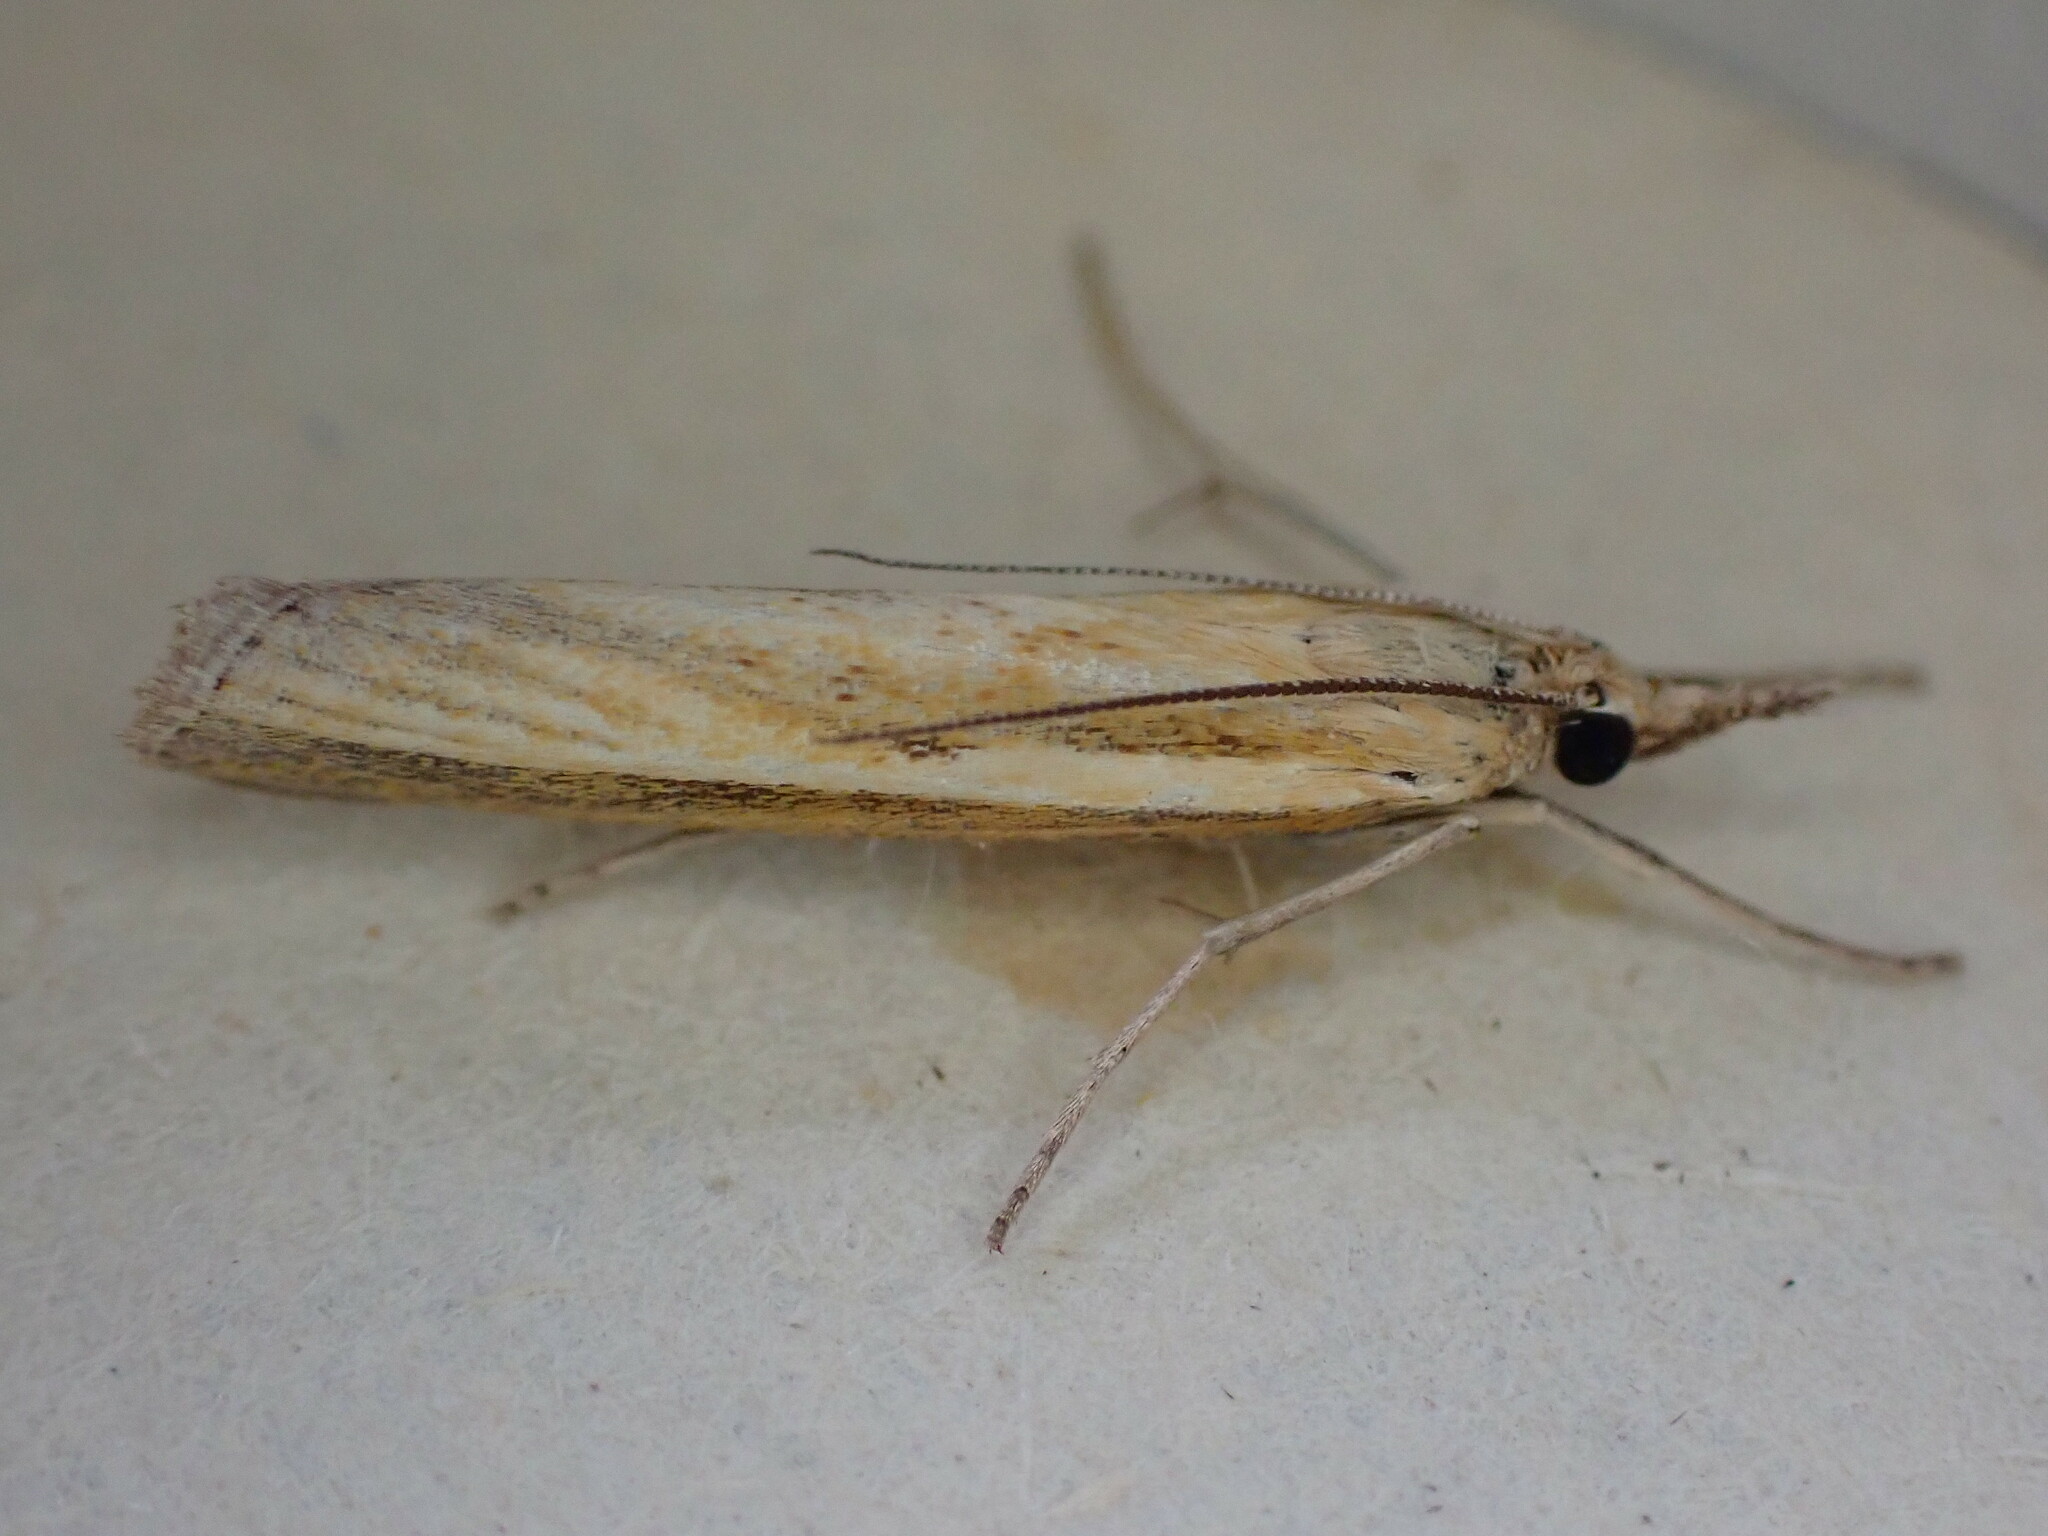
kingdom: Animalia
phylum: Arthropoda
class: Insecta
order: Lepidoptera
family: Crambidae
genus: Agriphila
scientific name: Agriphila tristellus
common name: Common grass-veneer
